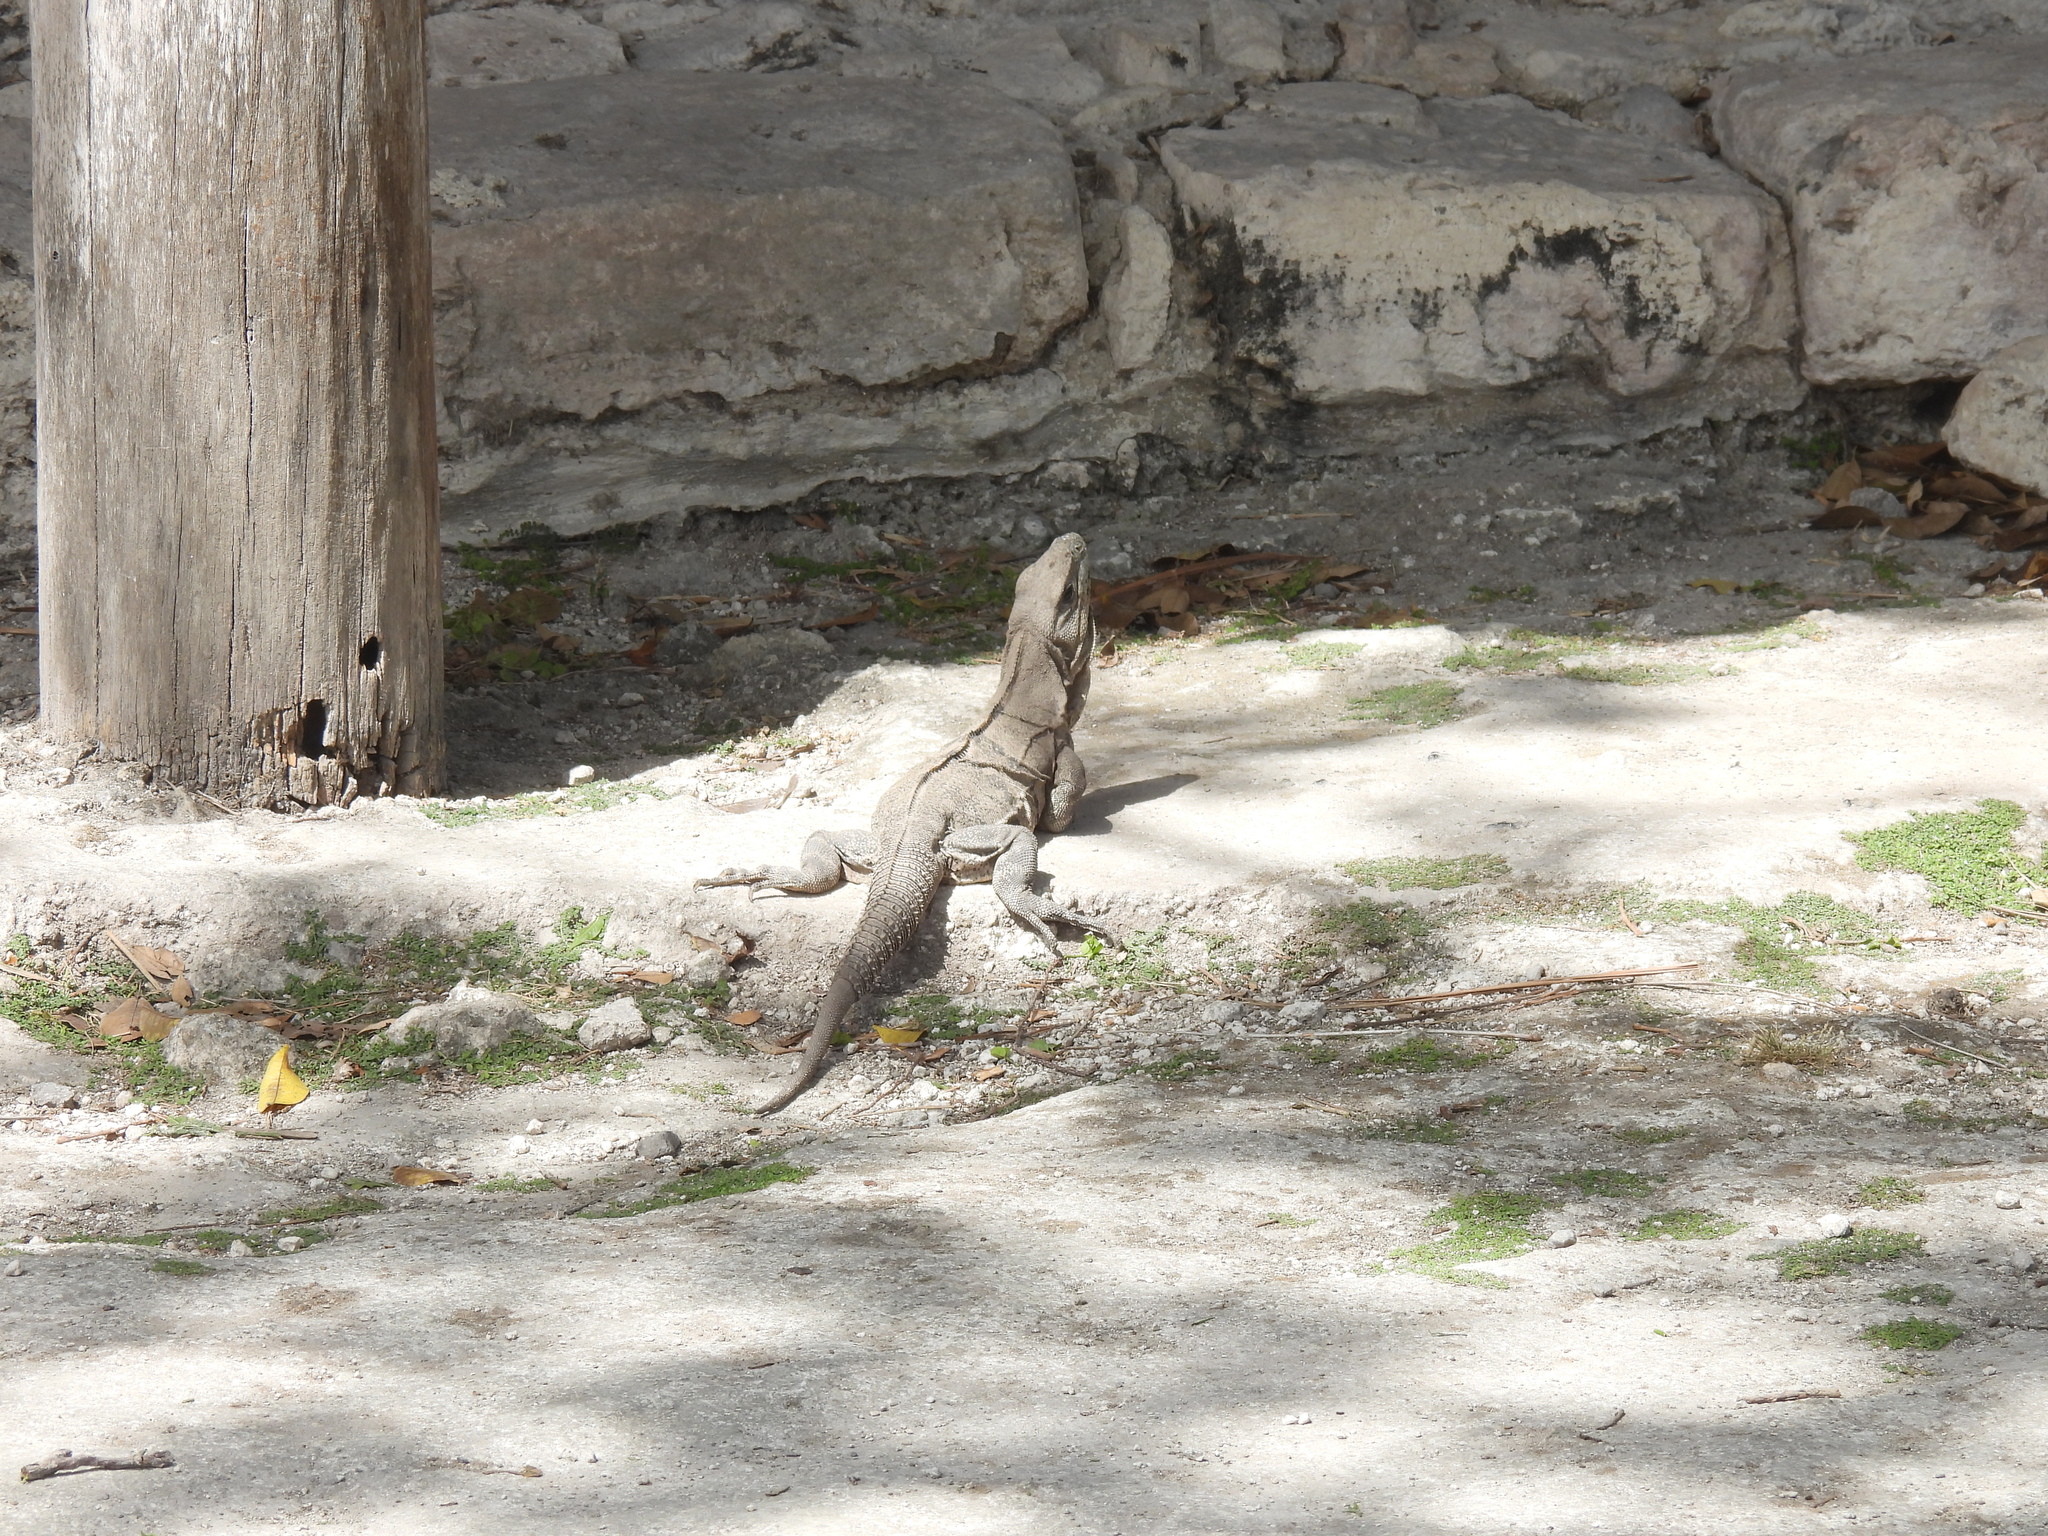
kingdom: Animalia
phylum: Chordata
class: Squamata
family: Iguanidae
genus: Ctenosaura
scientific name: Ctenosaura similis
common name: Black spiny-tailed iguana
